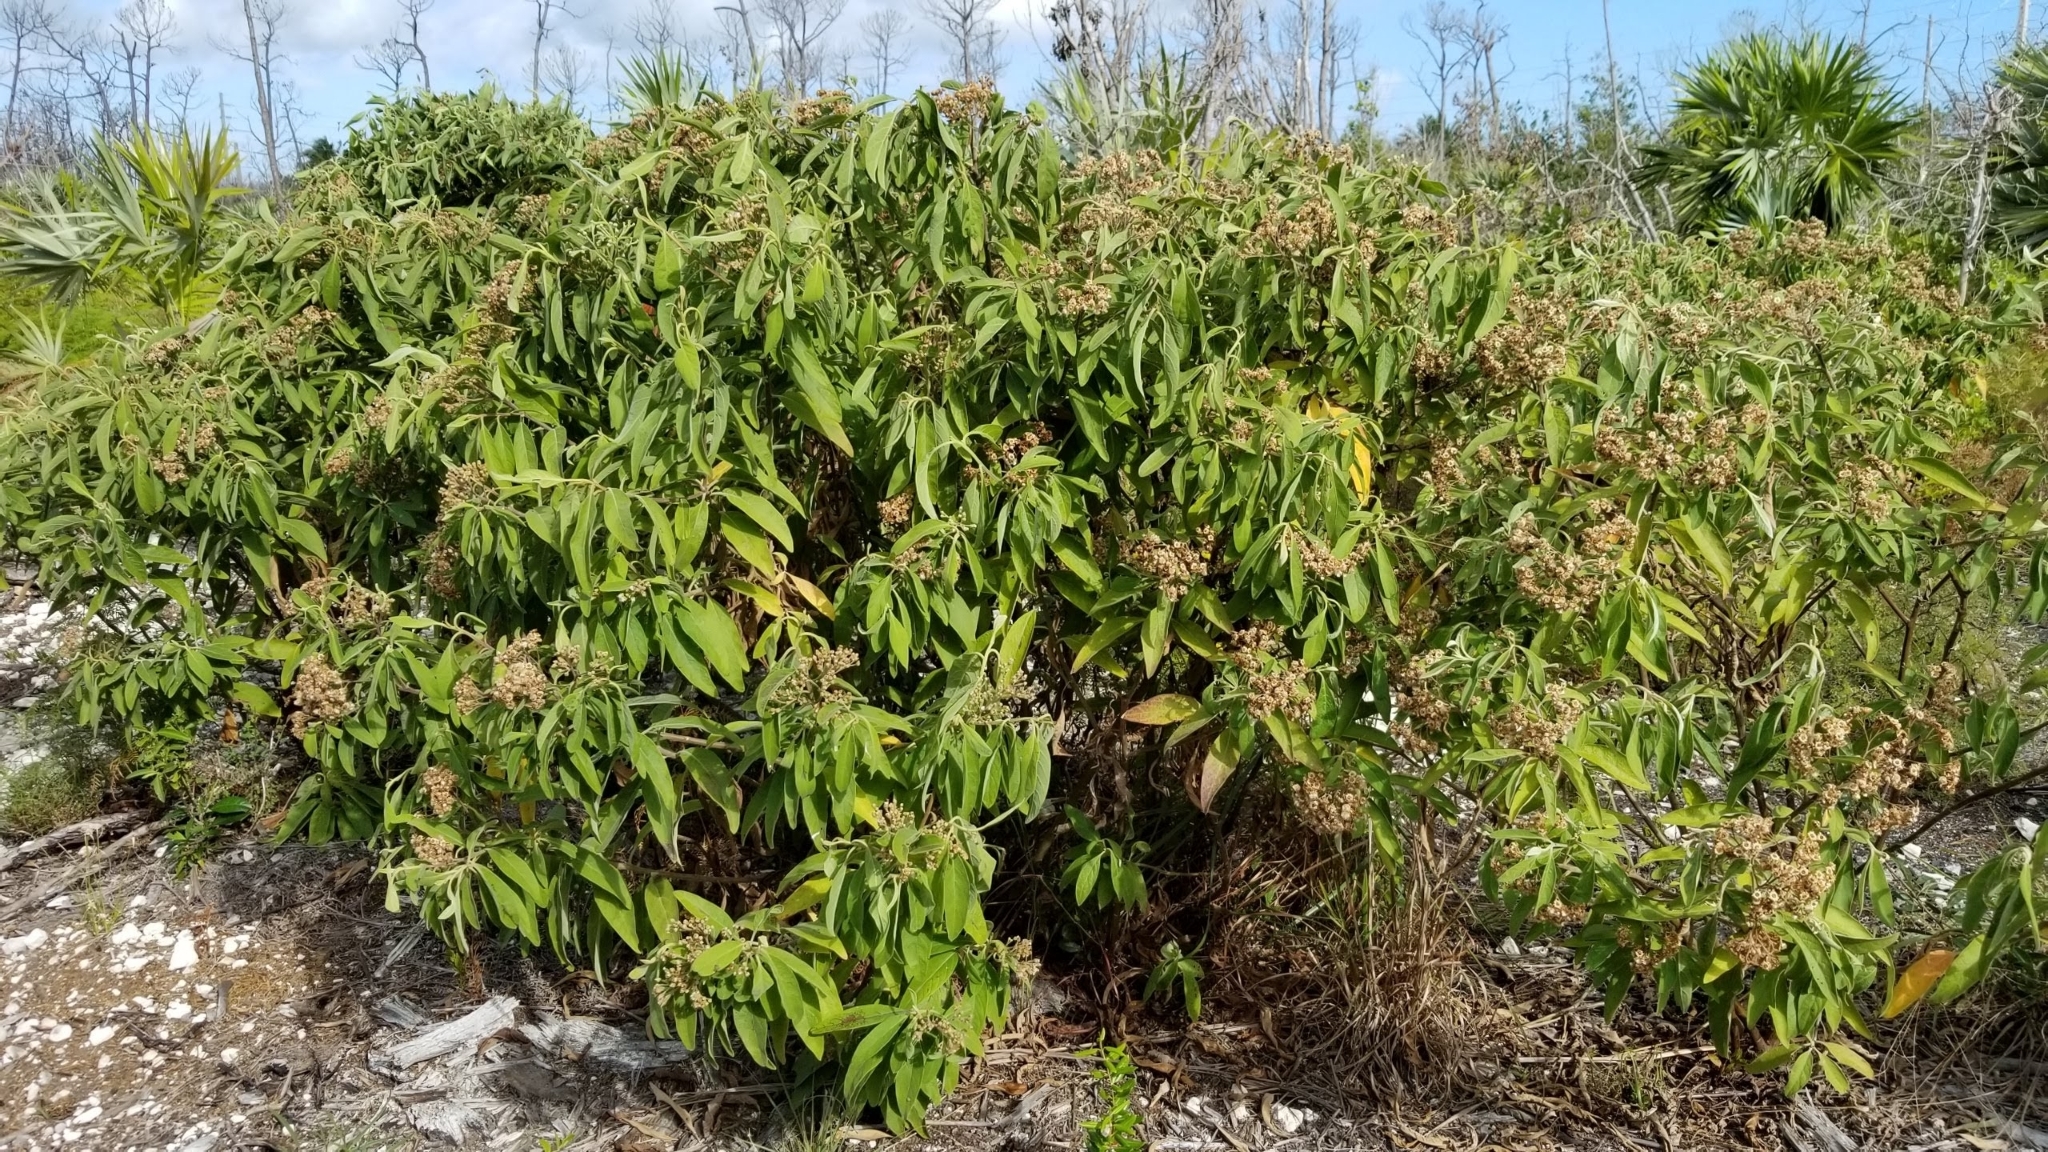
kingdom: Plantae
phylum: Tracheophyta
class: Magnoliopsida
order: Asterales
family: Asteraceae
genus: Pluchea
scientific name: Pluchea carolinensis
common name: Marsh fleabane
